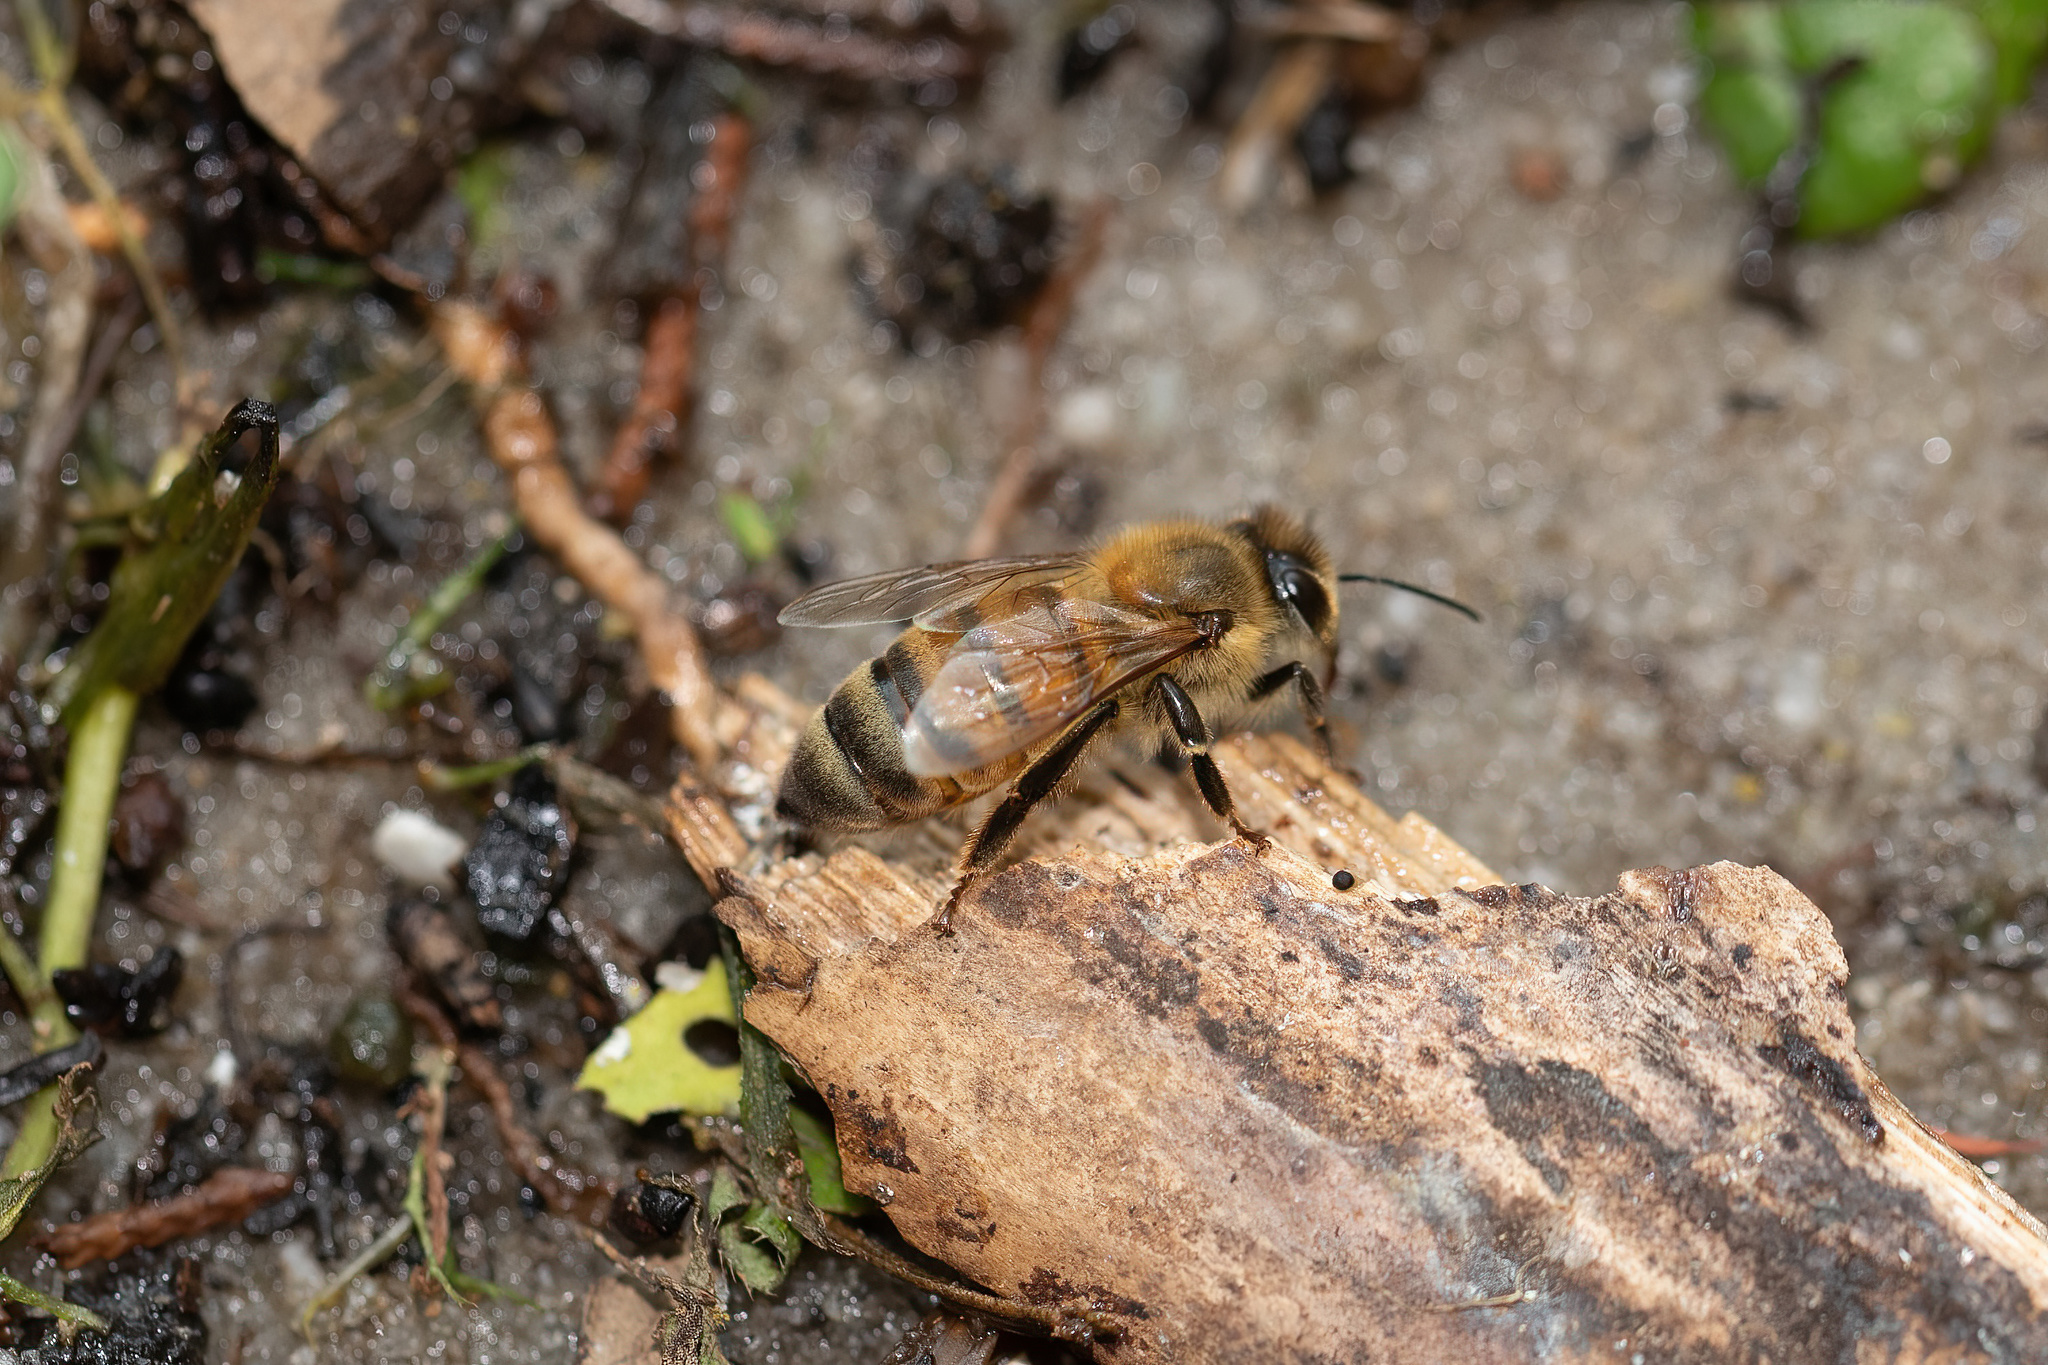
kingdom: Animalia
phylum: Arthropoda
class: Insecta
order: Hymenoptera
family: Apidae
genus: Apis
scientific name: Apis mellifera
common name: Honey bee
